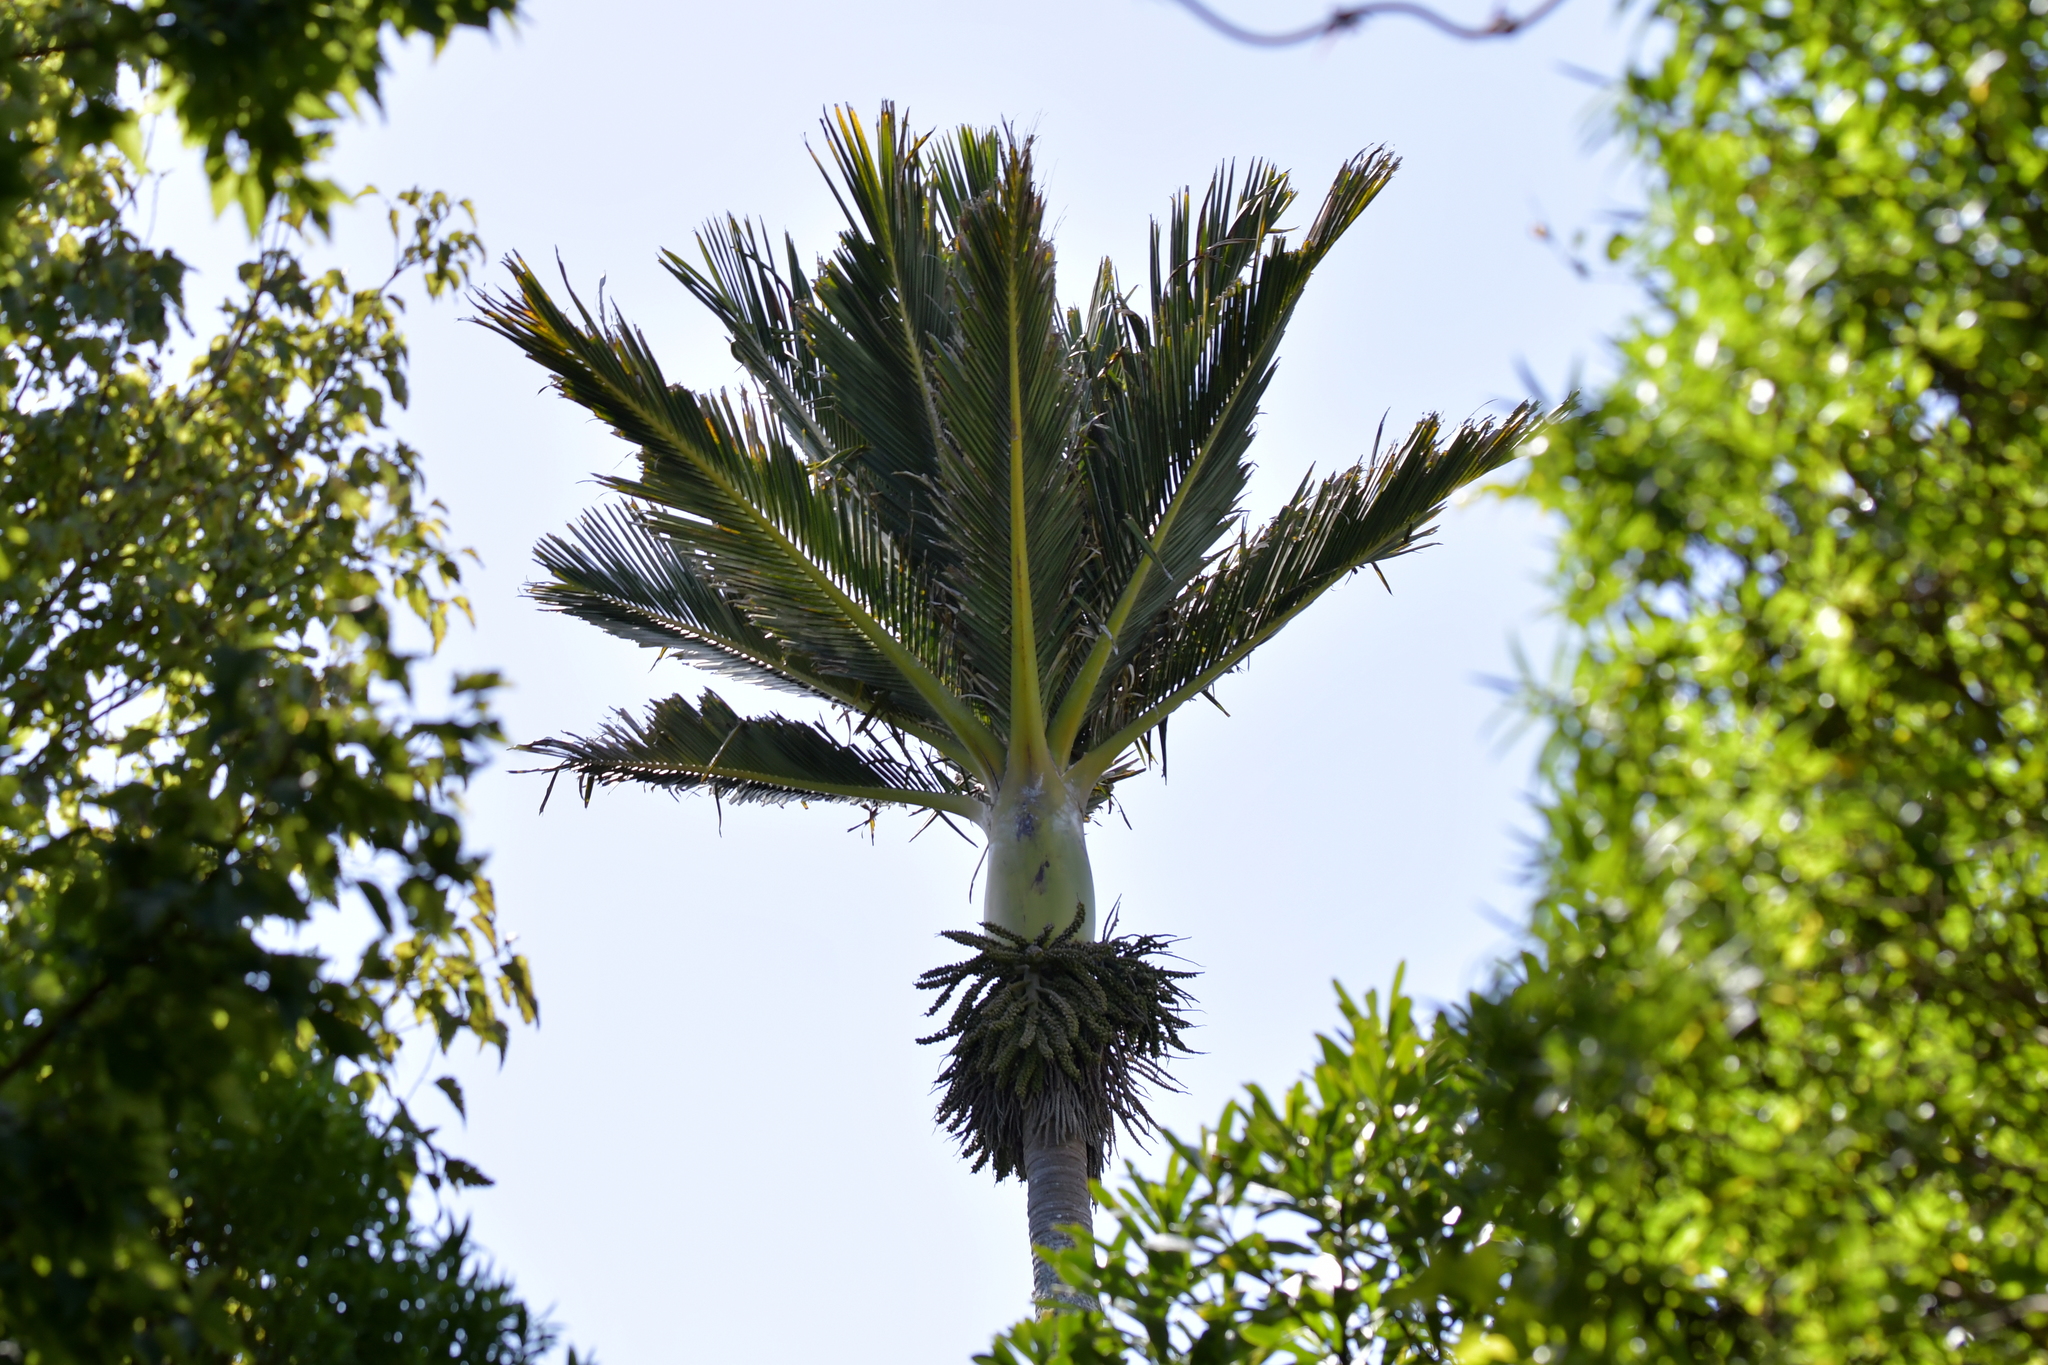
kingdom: Plantae
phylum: Tracheophyta
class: Liliopsida
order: Arecales
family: Arecaceae
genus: Rhopalostylis
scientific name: Rhopalostylis sapida
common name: Feather-duster palm
